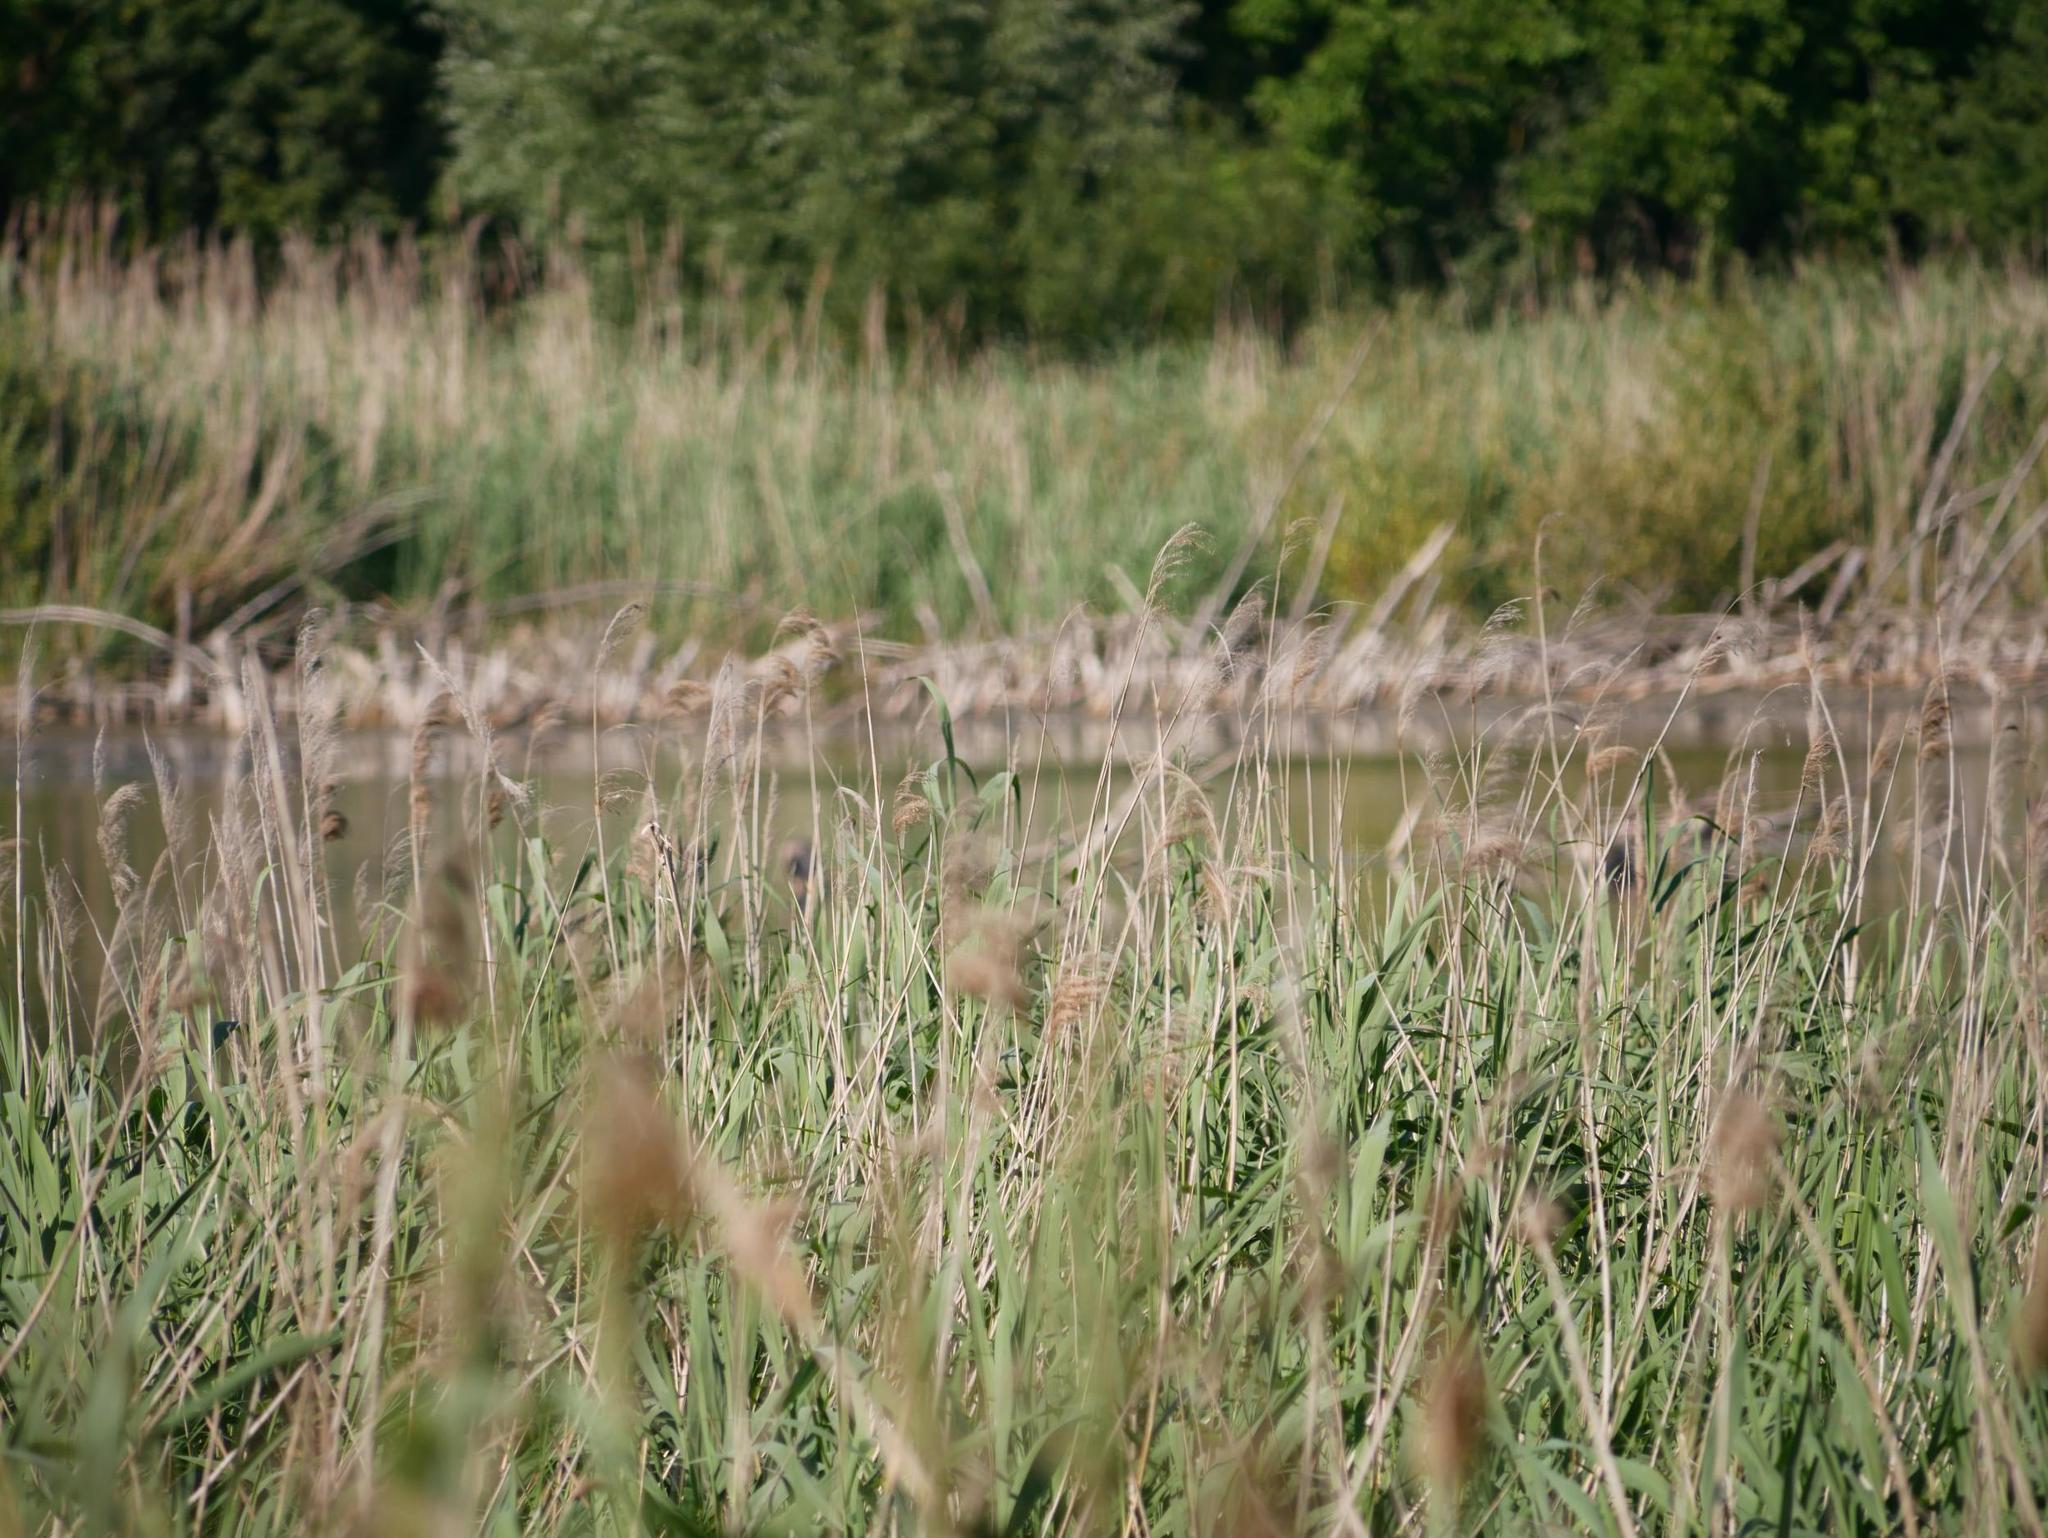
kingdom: Plantae
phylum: Tracheophyta
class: Liliopsida
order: Poales
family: Poaceae
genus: Phragmites
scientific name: Phragmites australis
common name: Common reed
